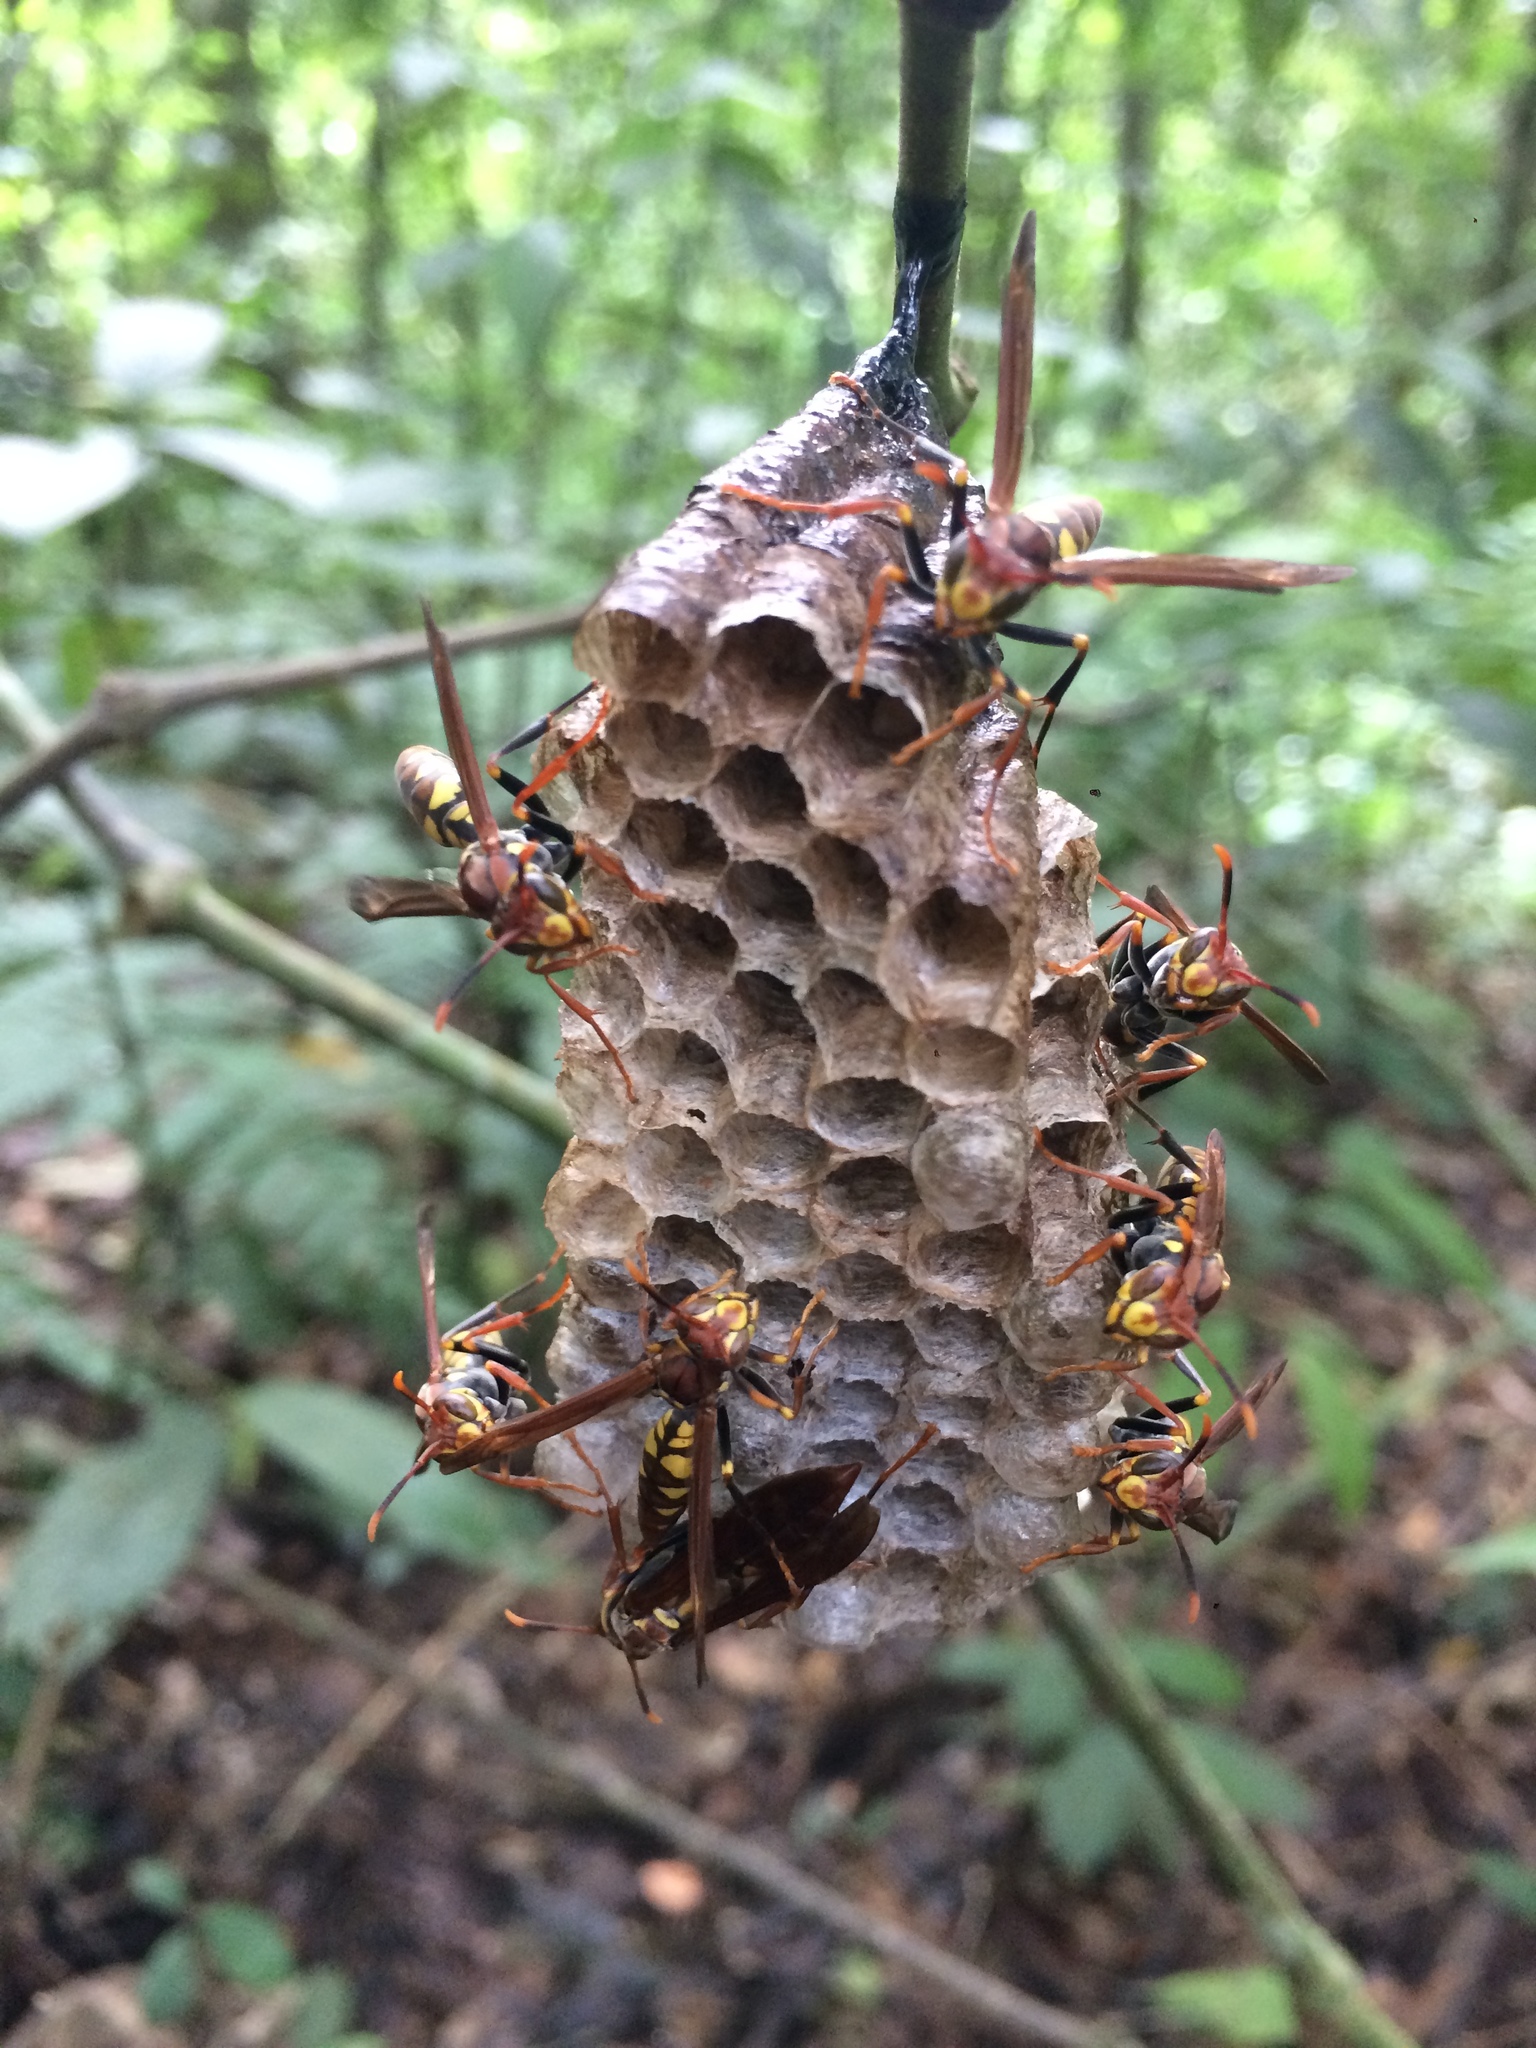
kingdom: Animalia
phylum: Arthropoda
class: Insecta
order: Hymenoptera
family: Eumenidae
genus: Polistes
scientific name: Polistes versicolor
